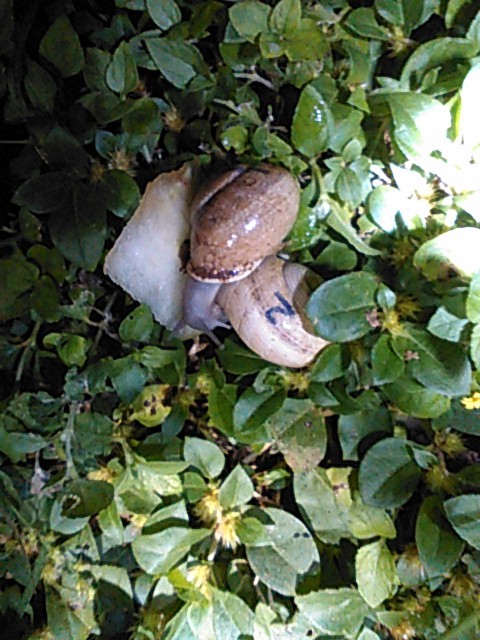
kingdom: Animalia
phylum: Mollusca
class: Gastropoda
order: Stylommatophora
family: Helicidae
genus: Otala
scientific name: Otala lactea
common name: Milk snail
